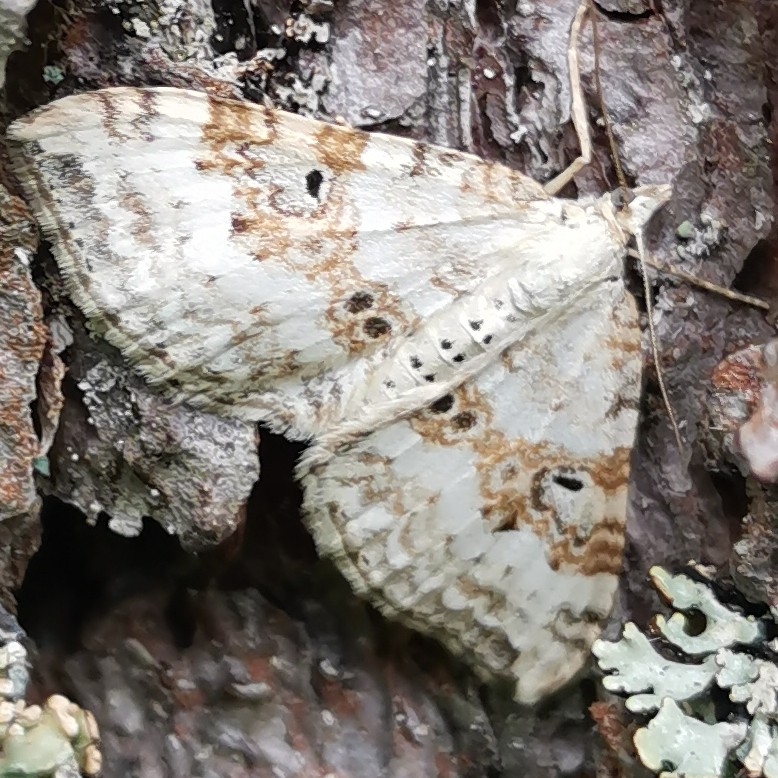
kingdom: Animalia
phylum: Arthropoda
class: Insecta
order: Lepidoptera
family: Geometridae
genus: Xanthorhoe
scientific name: Xanthorhoe montanata
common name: Silver-ground carpet
